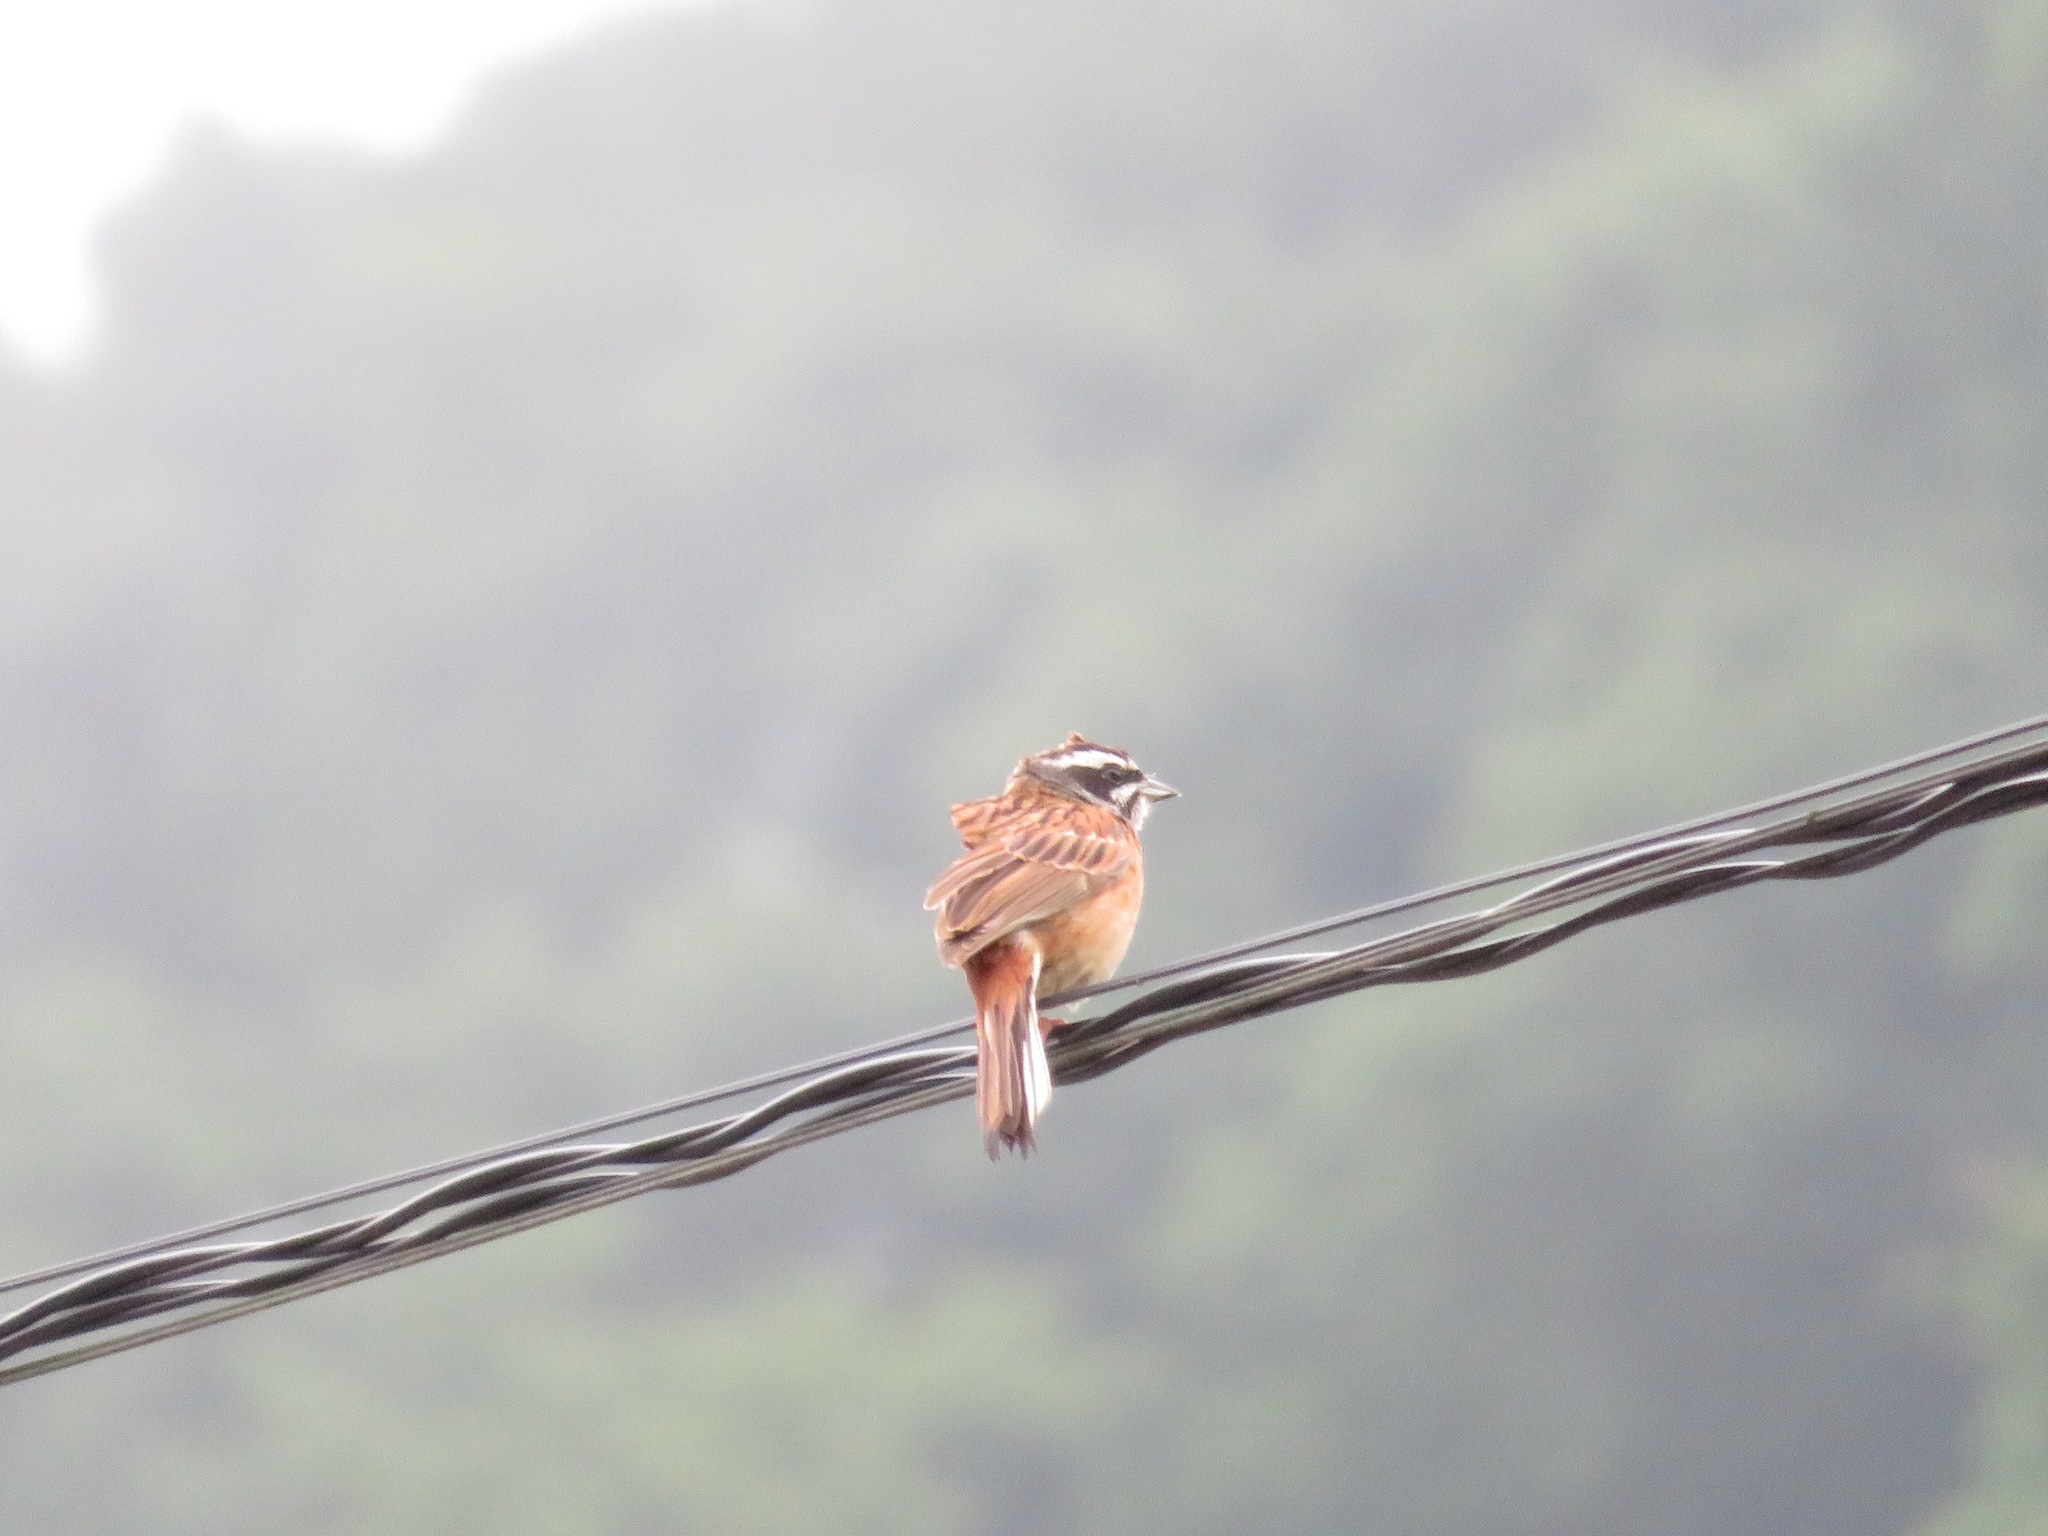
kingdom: Animalia
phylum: Chordata
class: Aves
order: Passeriformes
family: Emberizidae
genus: Emberiza
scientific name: Emberiza cioides
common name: Meadow bunting
